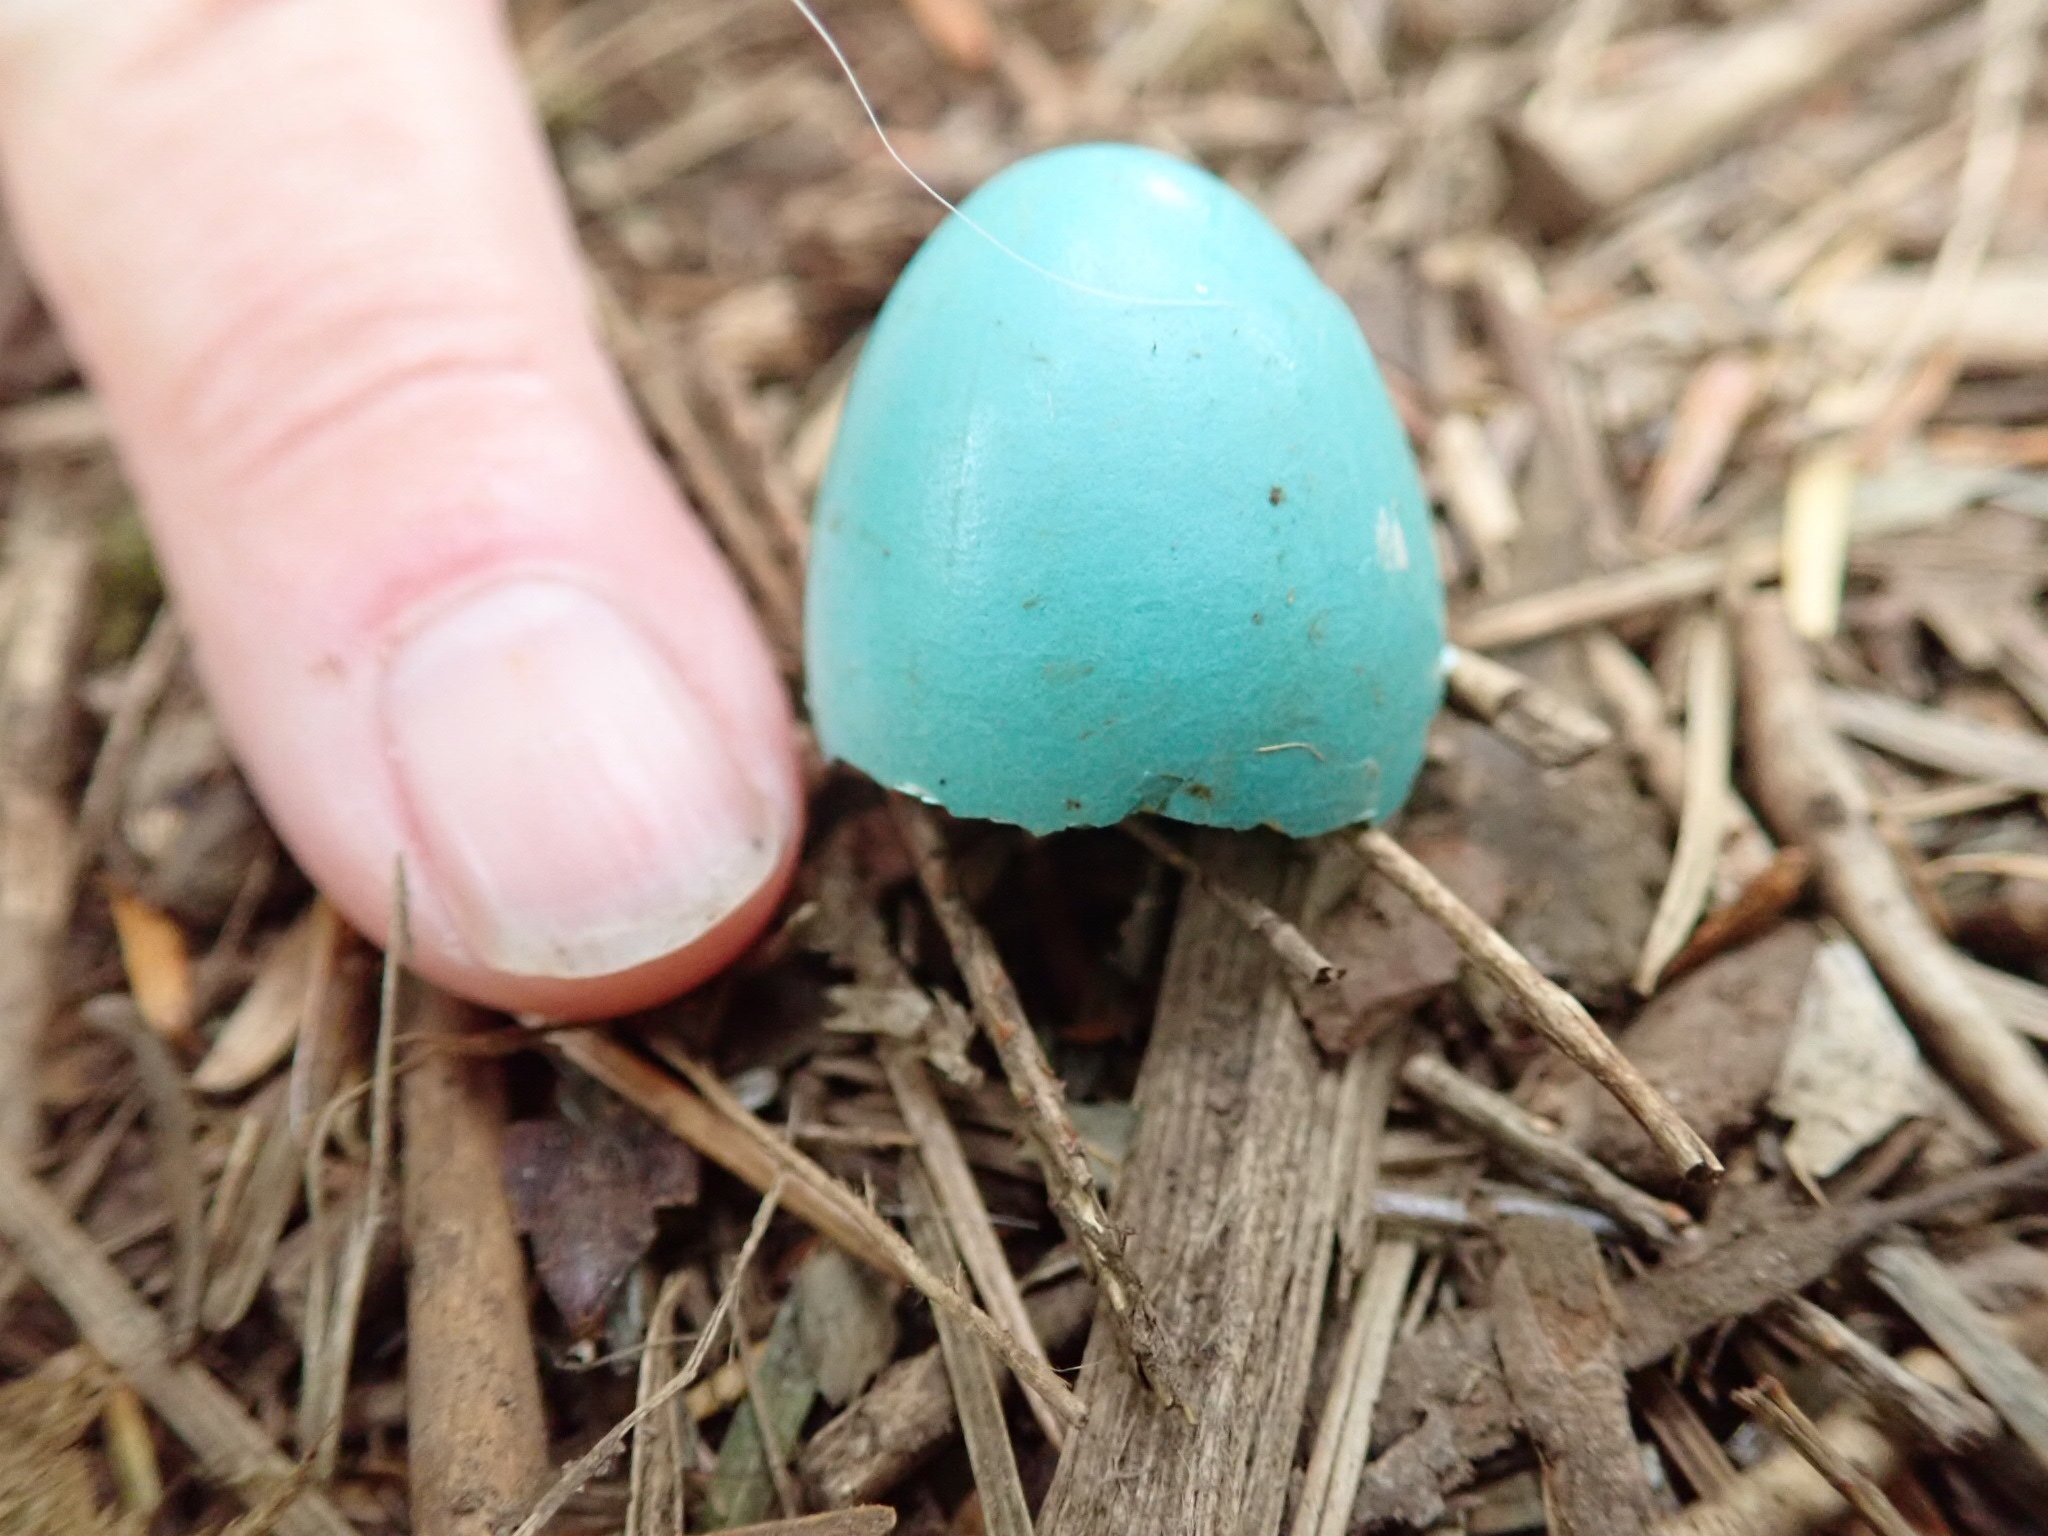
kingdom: Animalia
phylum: Chordata
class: Aves
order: Passeriformes
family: Turdidae
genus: Turdus
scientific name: Turdus migratorius
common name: American robin
